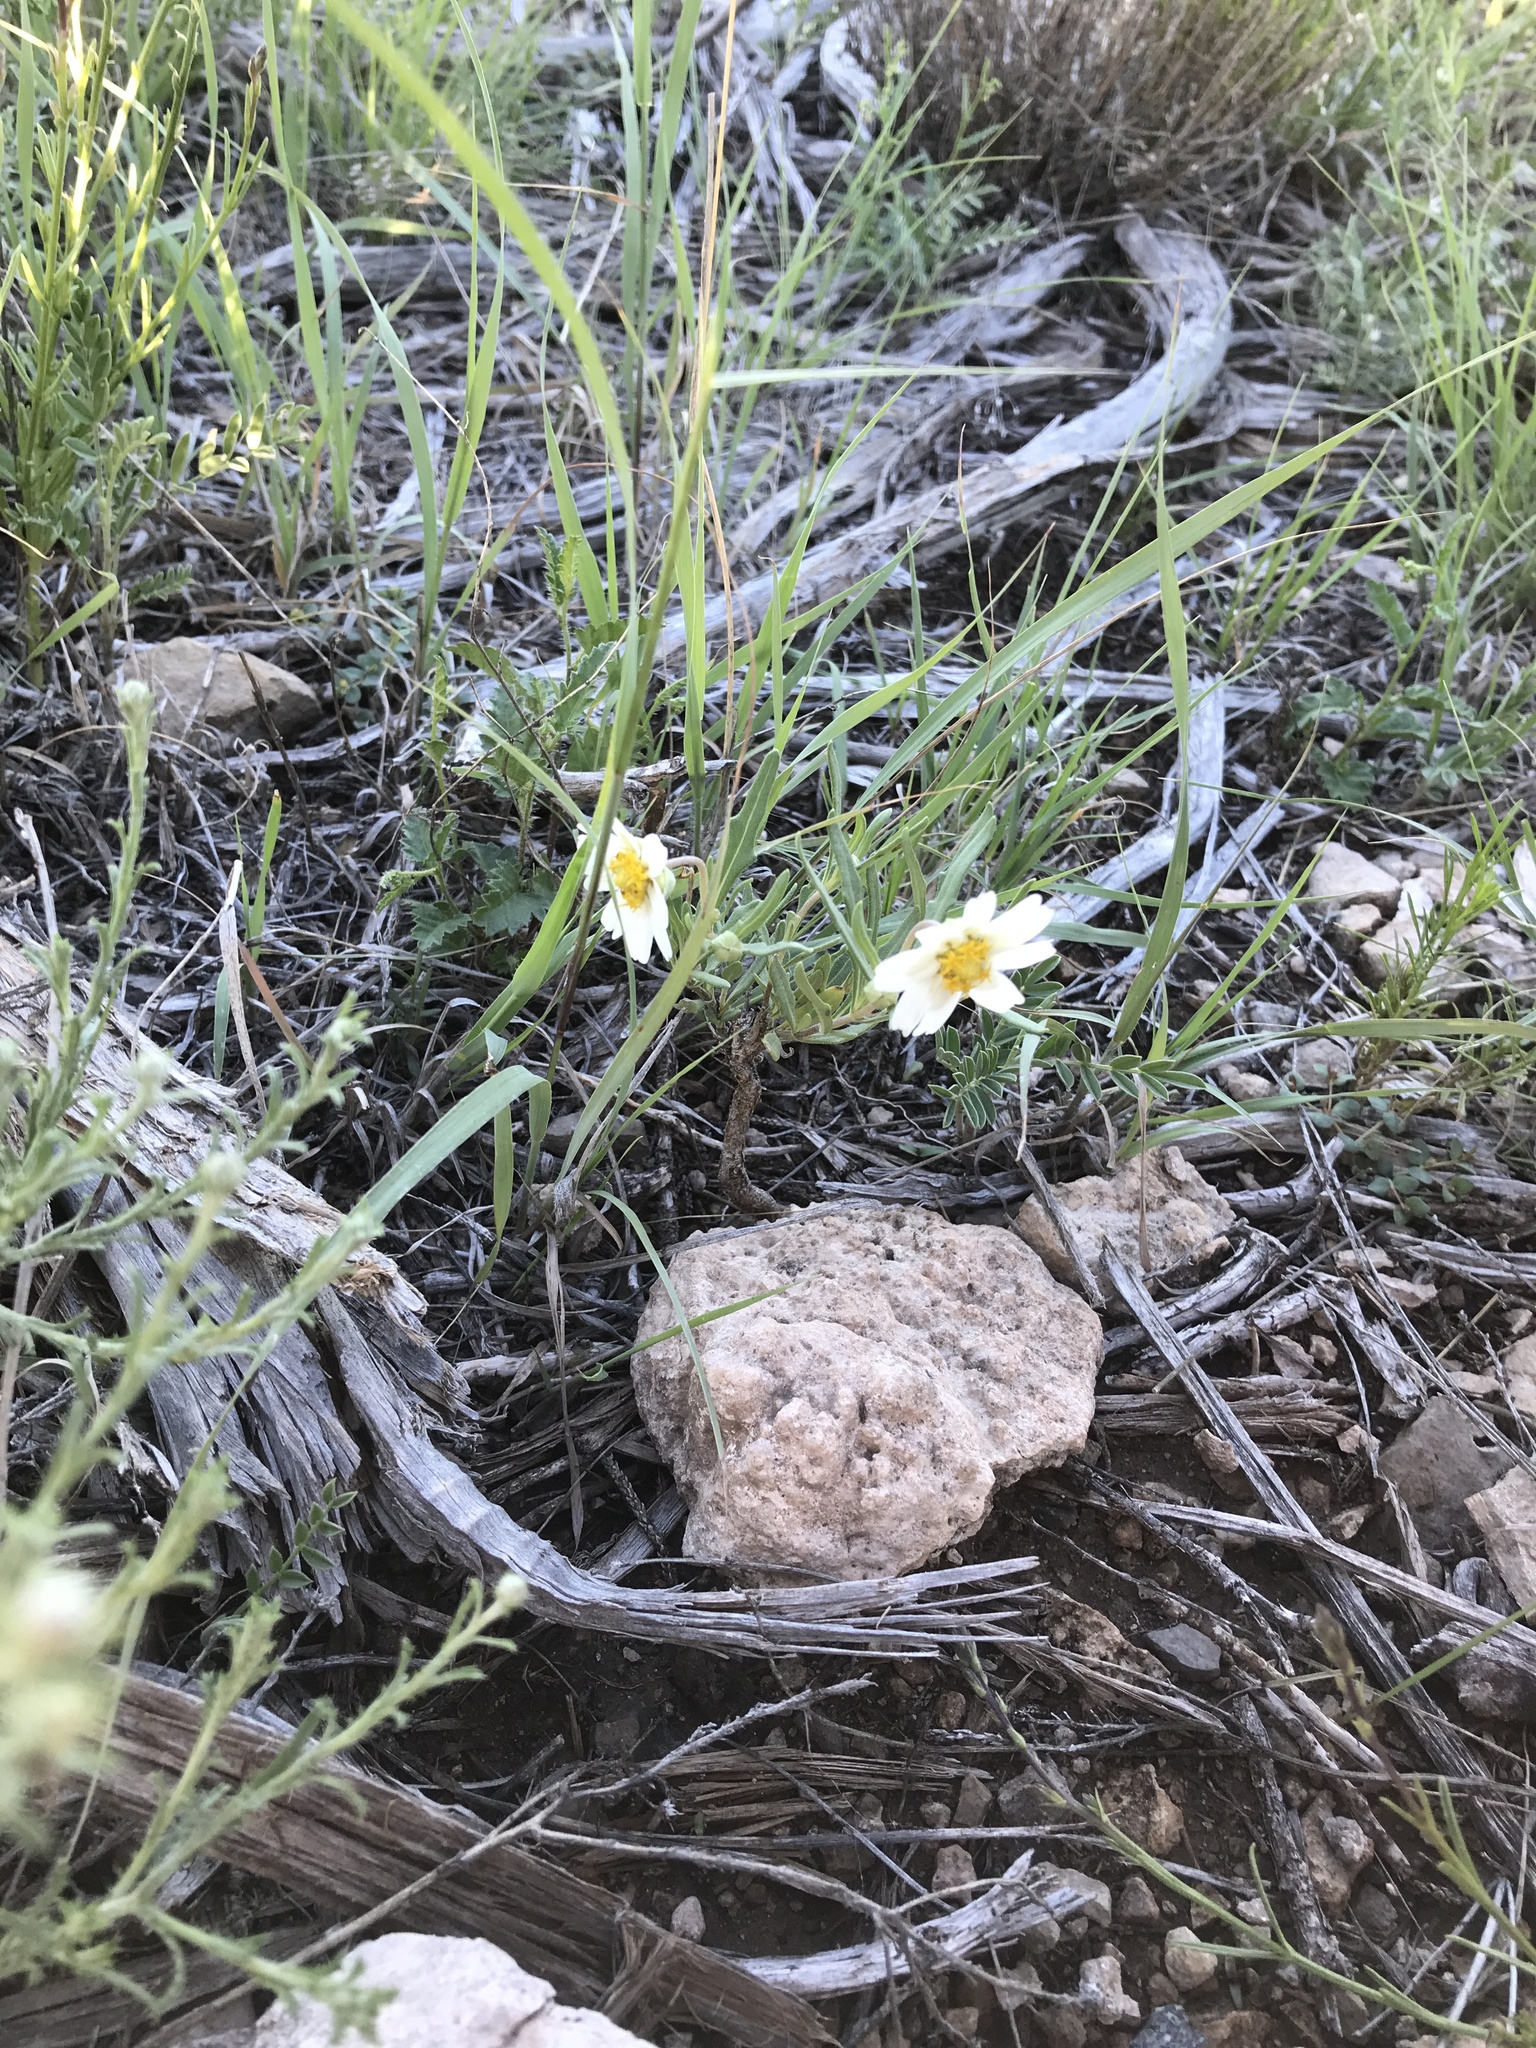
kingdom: Plantae
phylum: Tracheophyta
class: Magnoliopsida
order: Asterales
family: Asteraceae
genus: Melampodium
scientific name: Melampodium leucanthum
